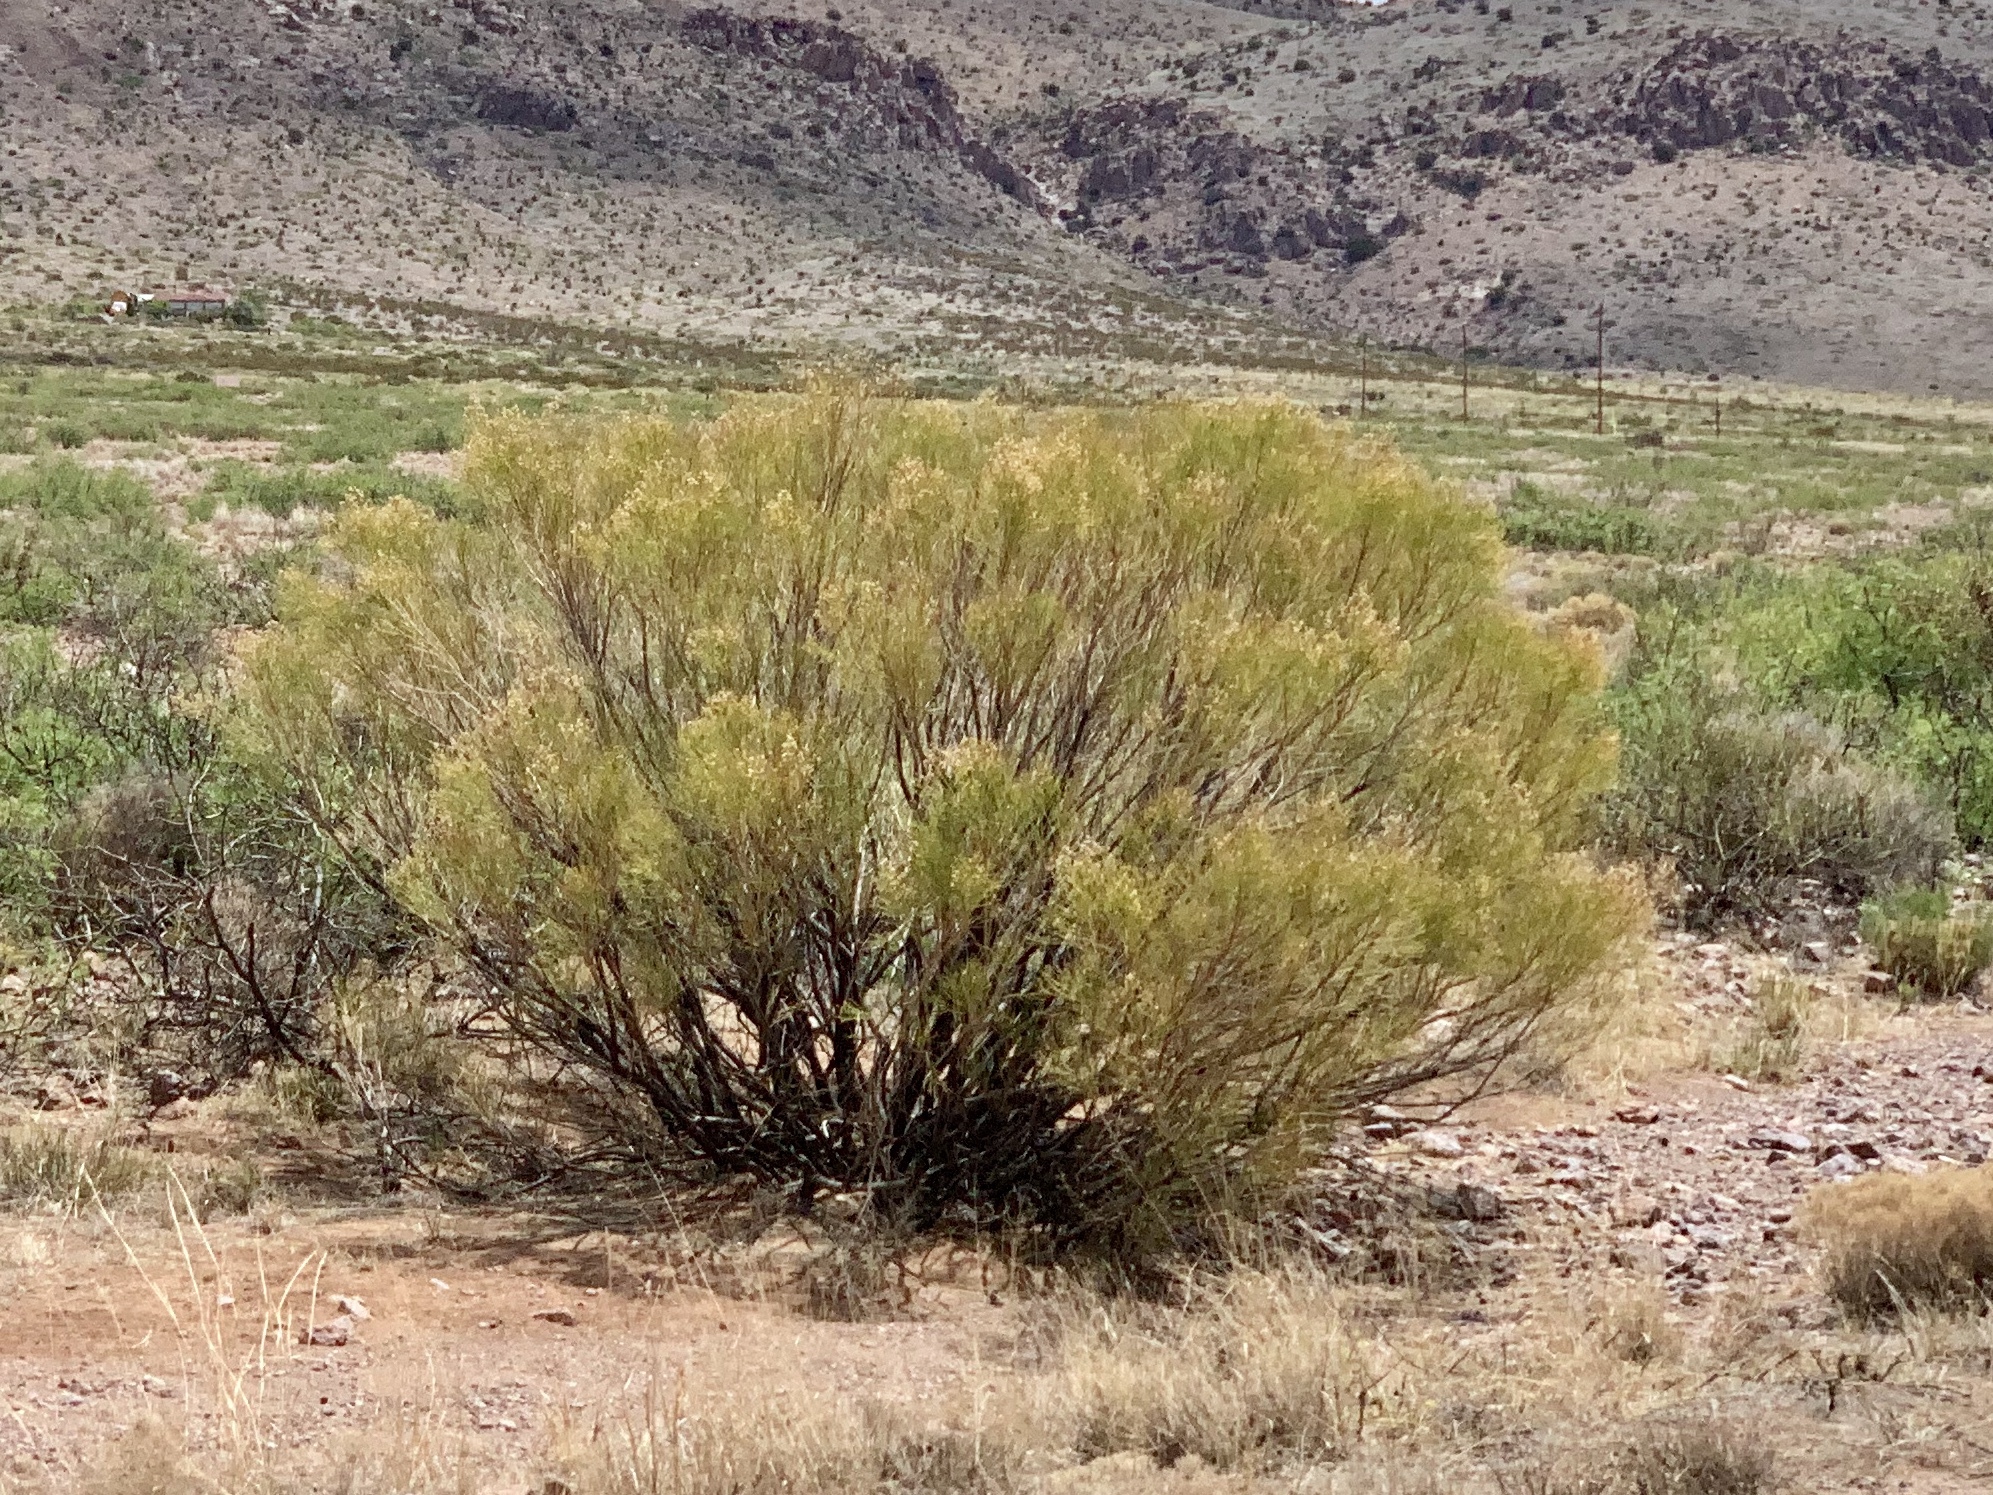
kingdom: Plantae
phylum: Tracheophyta
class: Magnoliopsida
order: Asterales
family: Asteraceae
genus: Baccharis
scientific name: Baccharis sarothroides
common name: Desert-broom
